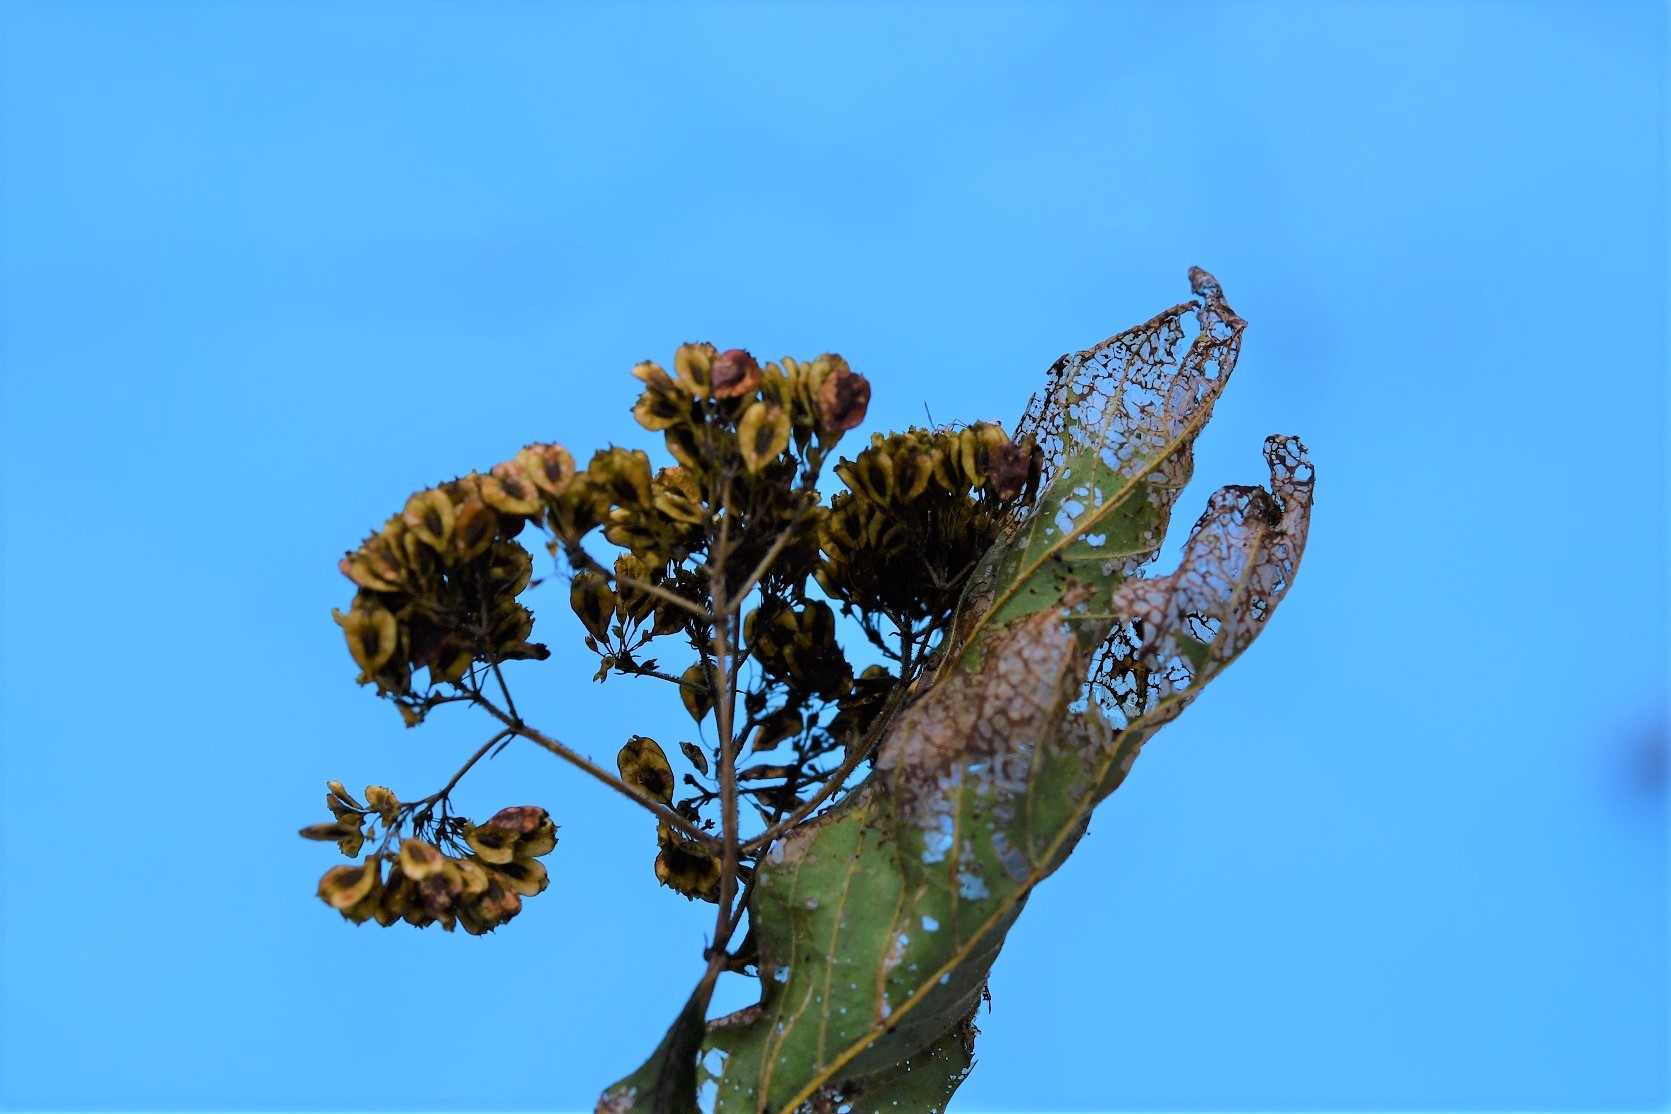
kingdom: Plantae
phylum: Tracheophyta
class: Magnoliopsida
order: Gentianales
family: Rubiaceae
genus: Machaonia
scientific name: Machaonia erythrocarpa
